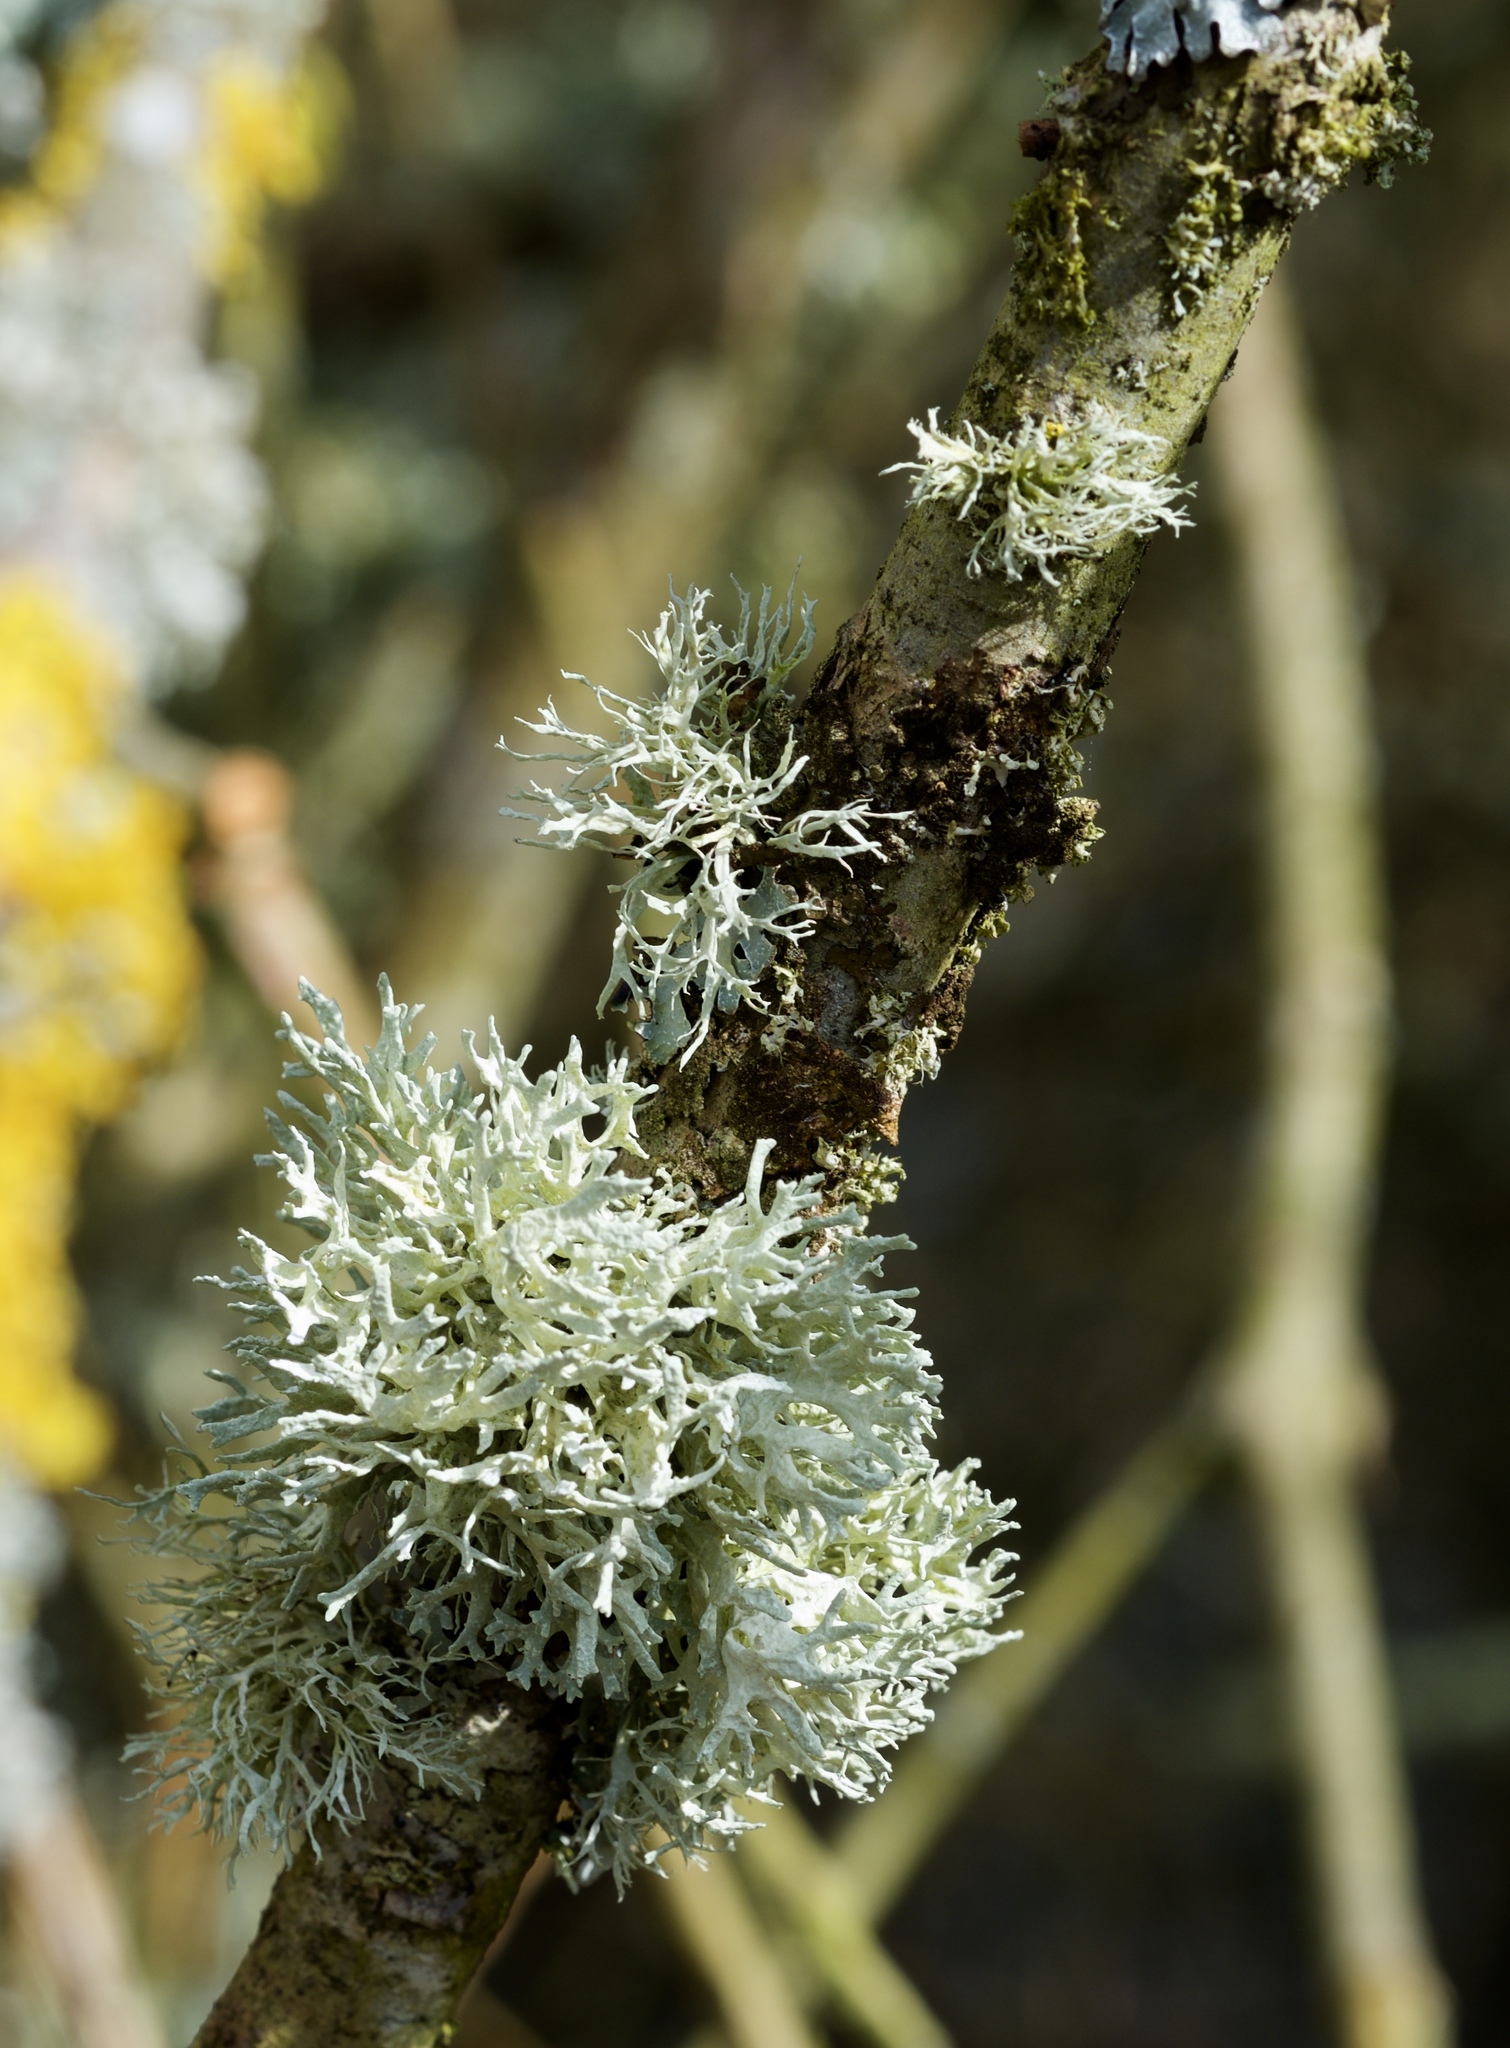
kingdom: Fungi
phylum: Ascomycota
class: Lecanoromycetes
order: Lecanorales
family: Parmeliaceae
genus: Evernia
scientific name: Evernia prunastri
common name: Oak moss
